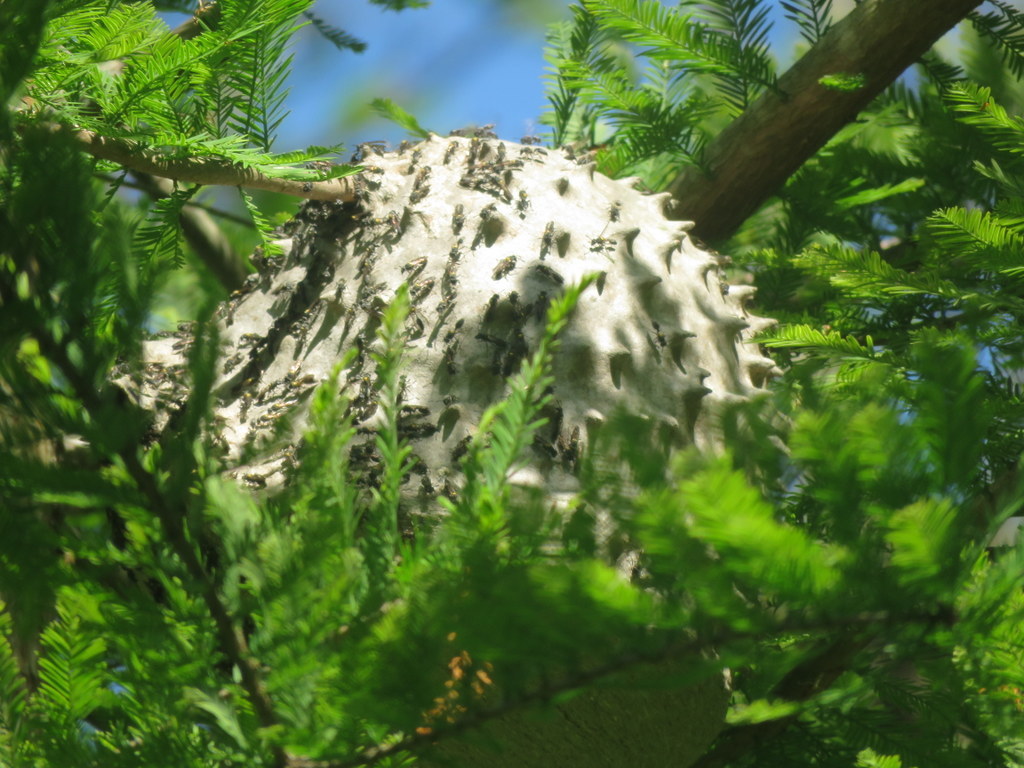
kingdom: Animalia
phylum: Arthropoda
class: Insecta
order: Hymenoptera
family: Eumenidae
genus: Polybia
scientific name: Polybia scutellaris
